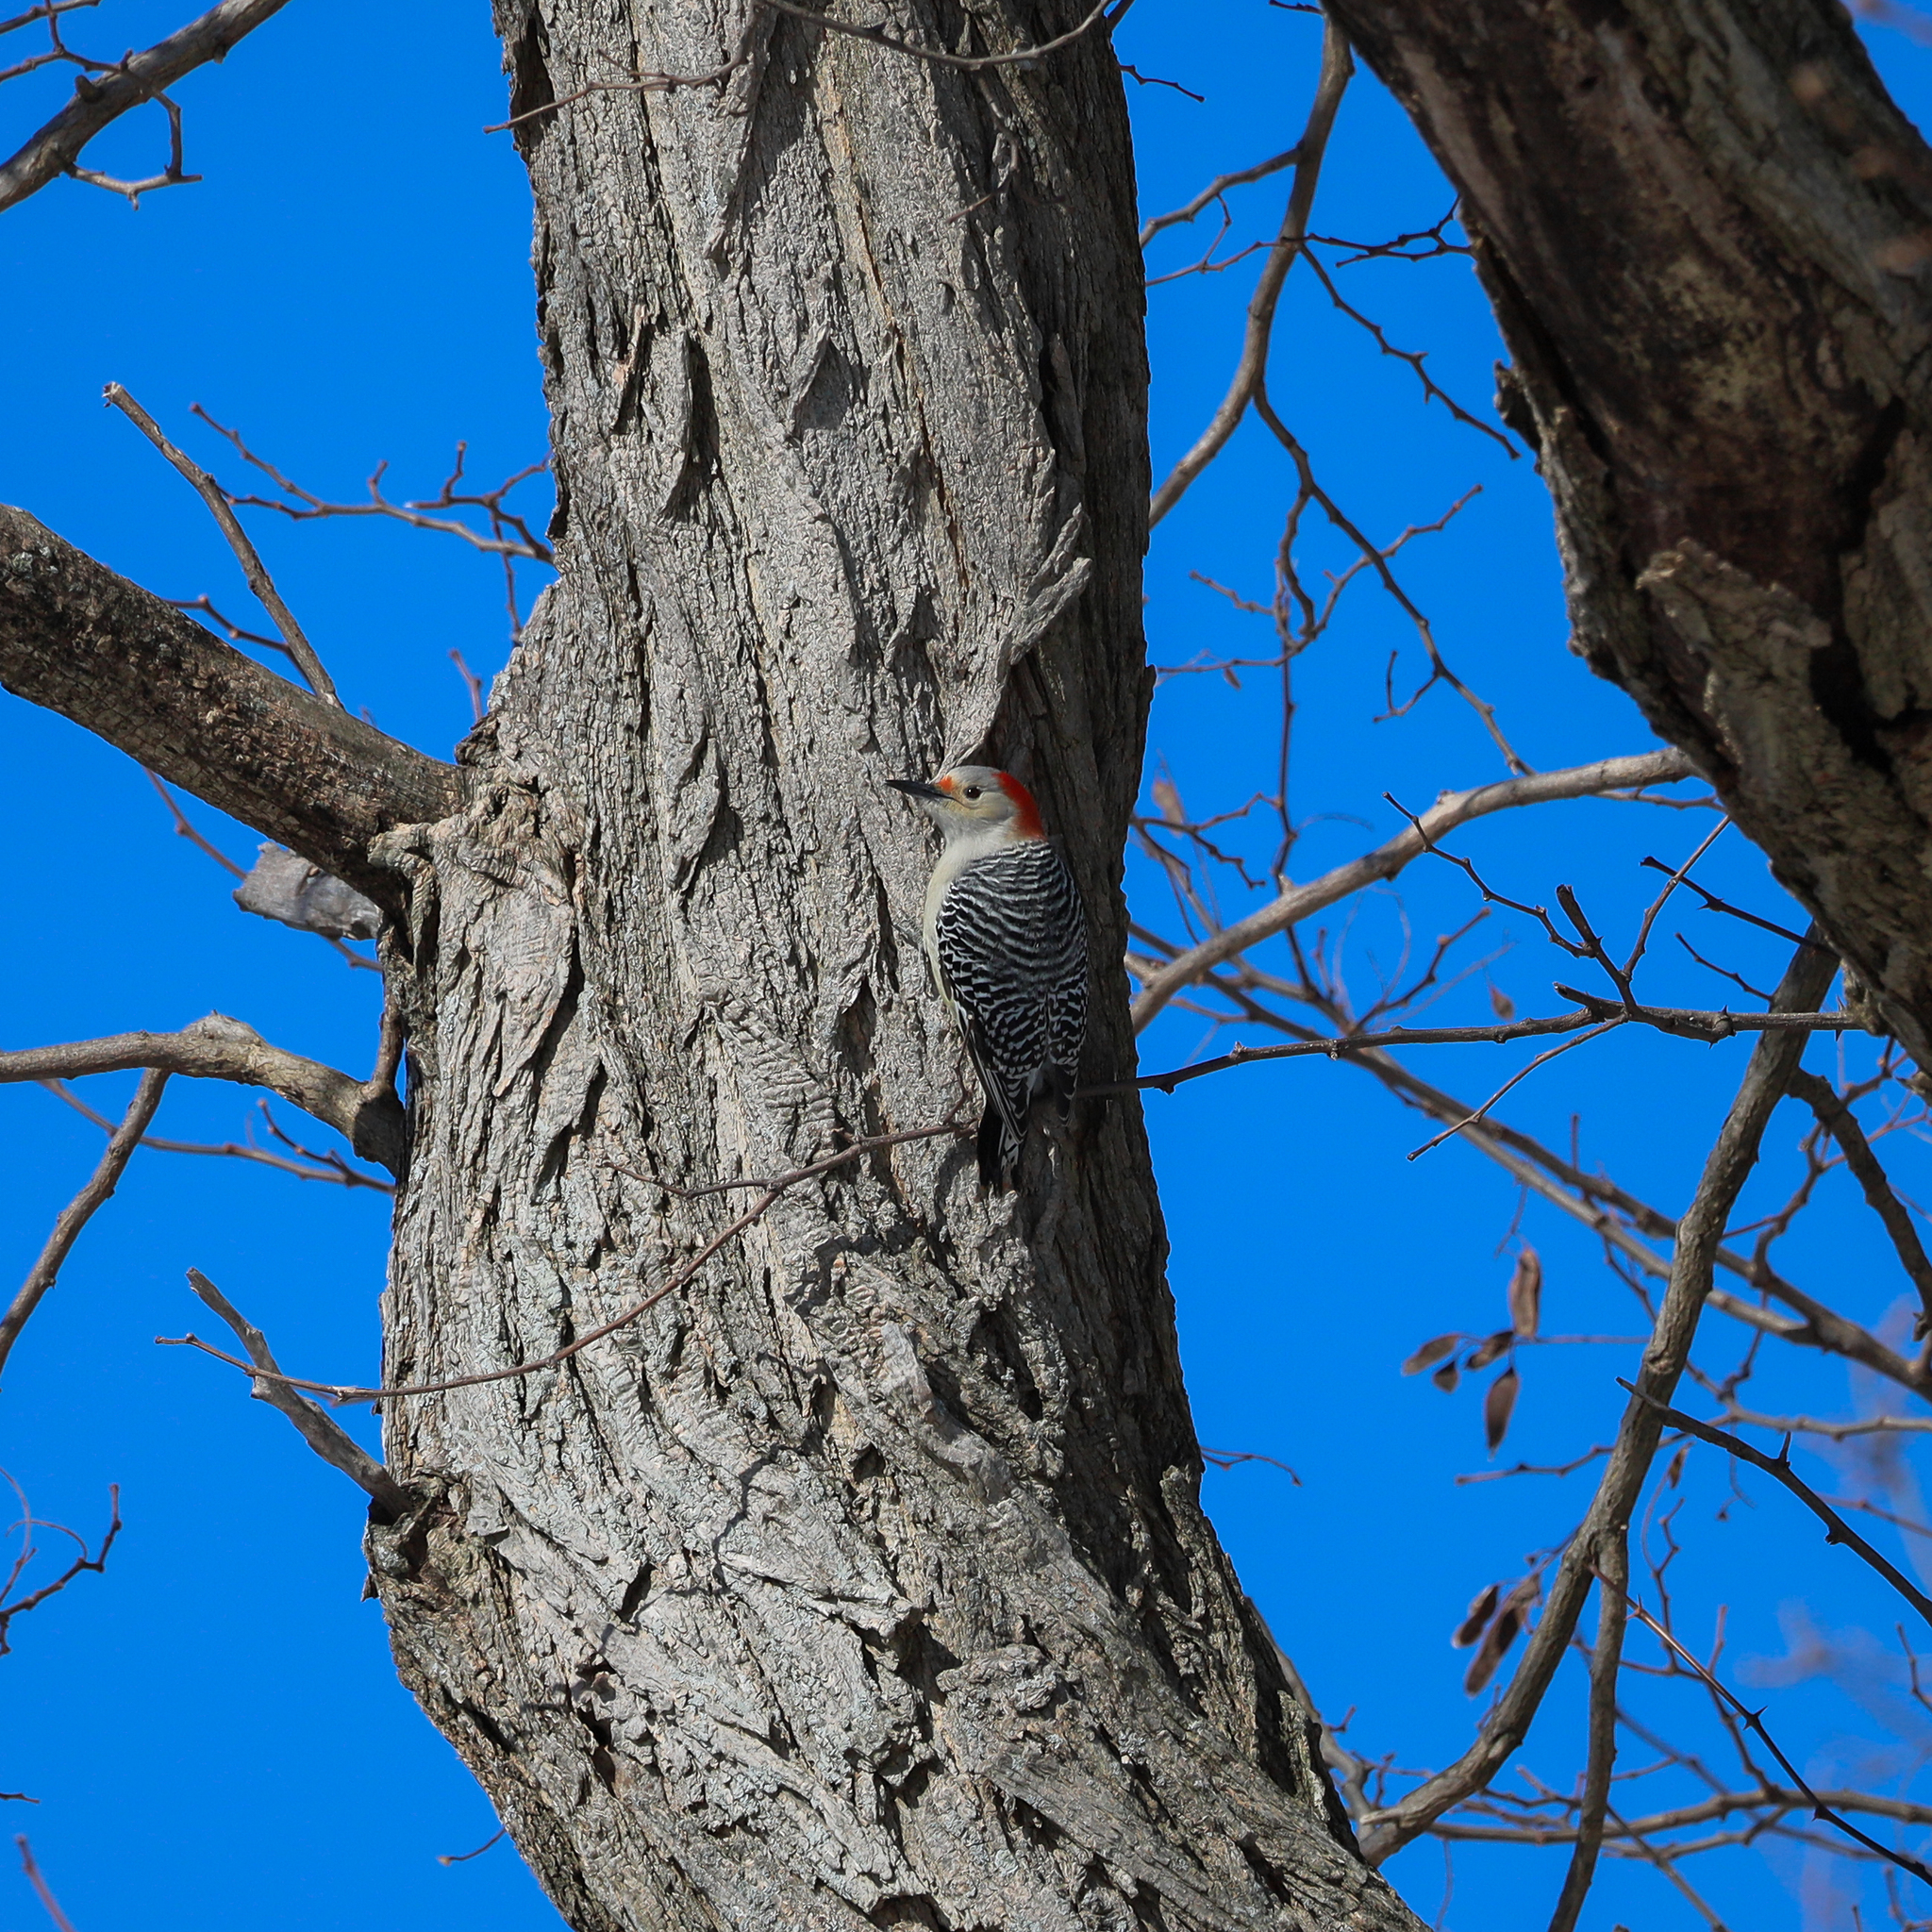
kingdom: Animalia
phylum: Chordata
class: Aves
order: Piciformes
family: Picidae
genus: Melanerpes
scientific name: Melanerpes carolinus
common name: Red-bellied woodpecker
